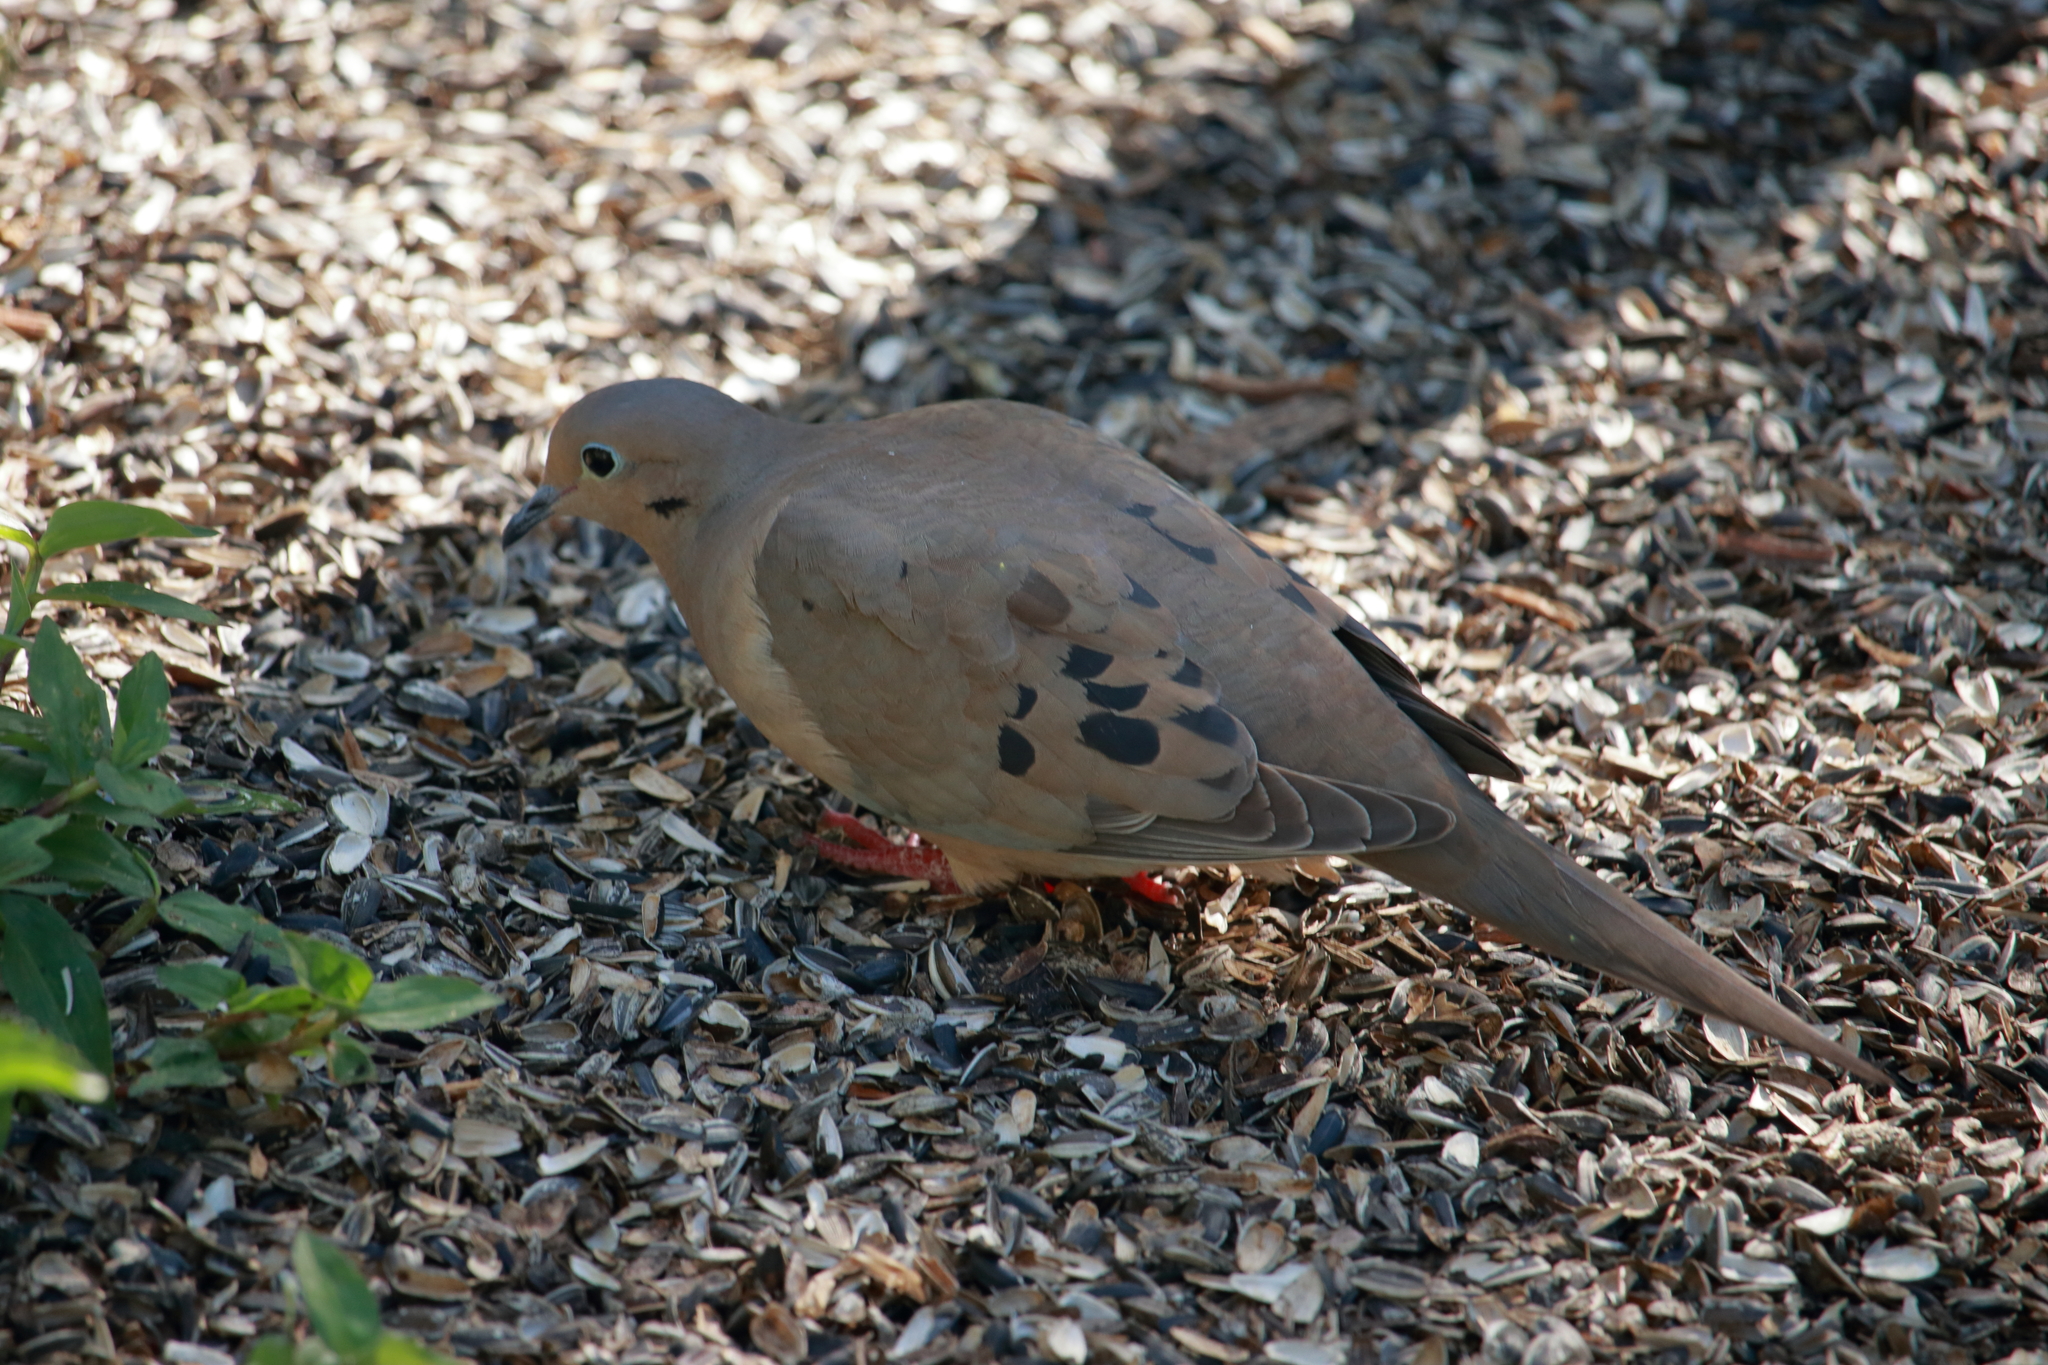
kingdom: Animalia
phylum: Chordata
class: Aves
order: Columbiformes
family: Columbidae
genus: Zenaida
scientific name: Zenaida macroura
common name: Mourning dove
